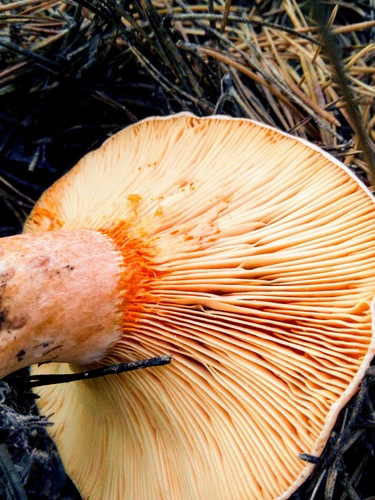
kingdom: Fungi
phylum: Basidiomycota
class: Agaricomycetes
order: Russulales
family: Russulaceae
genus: Lactarius
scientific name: Lactarius deliciosus
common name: Saffron milk-cap
